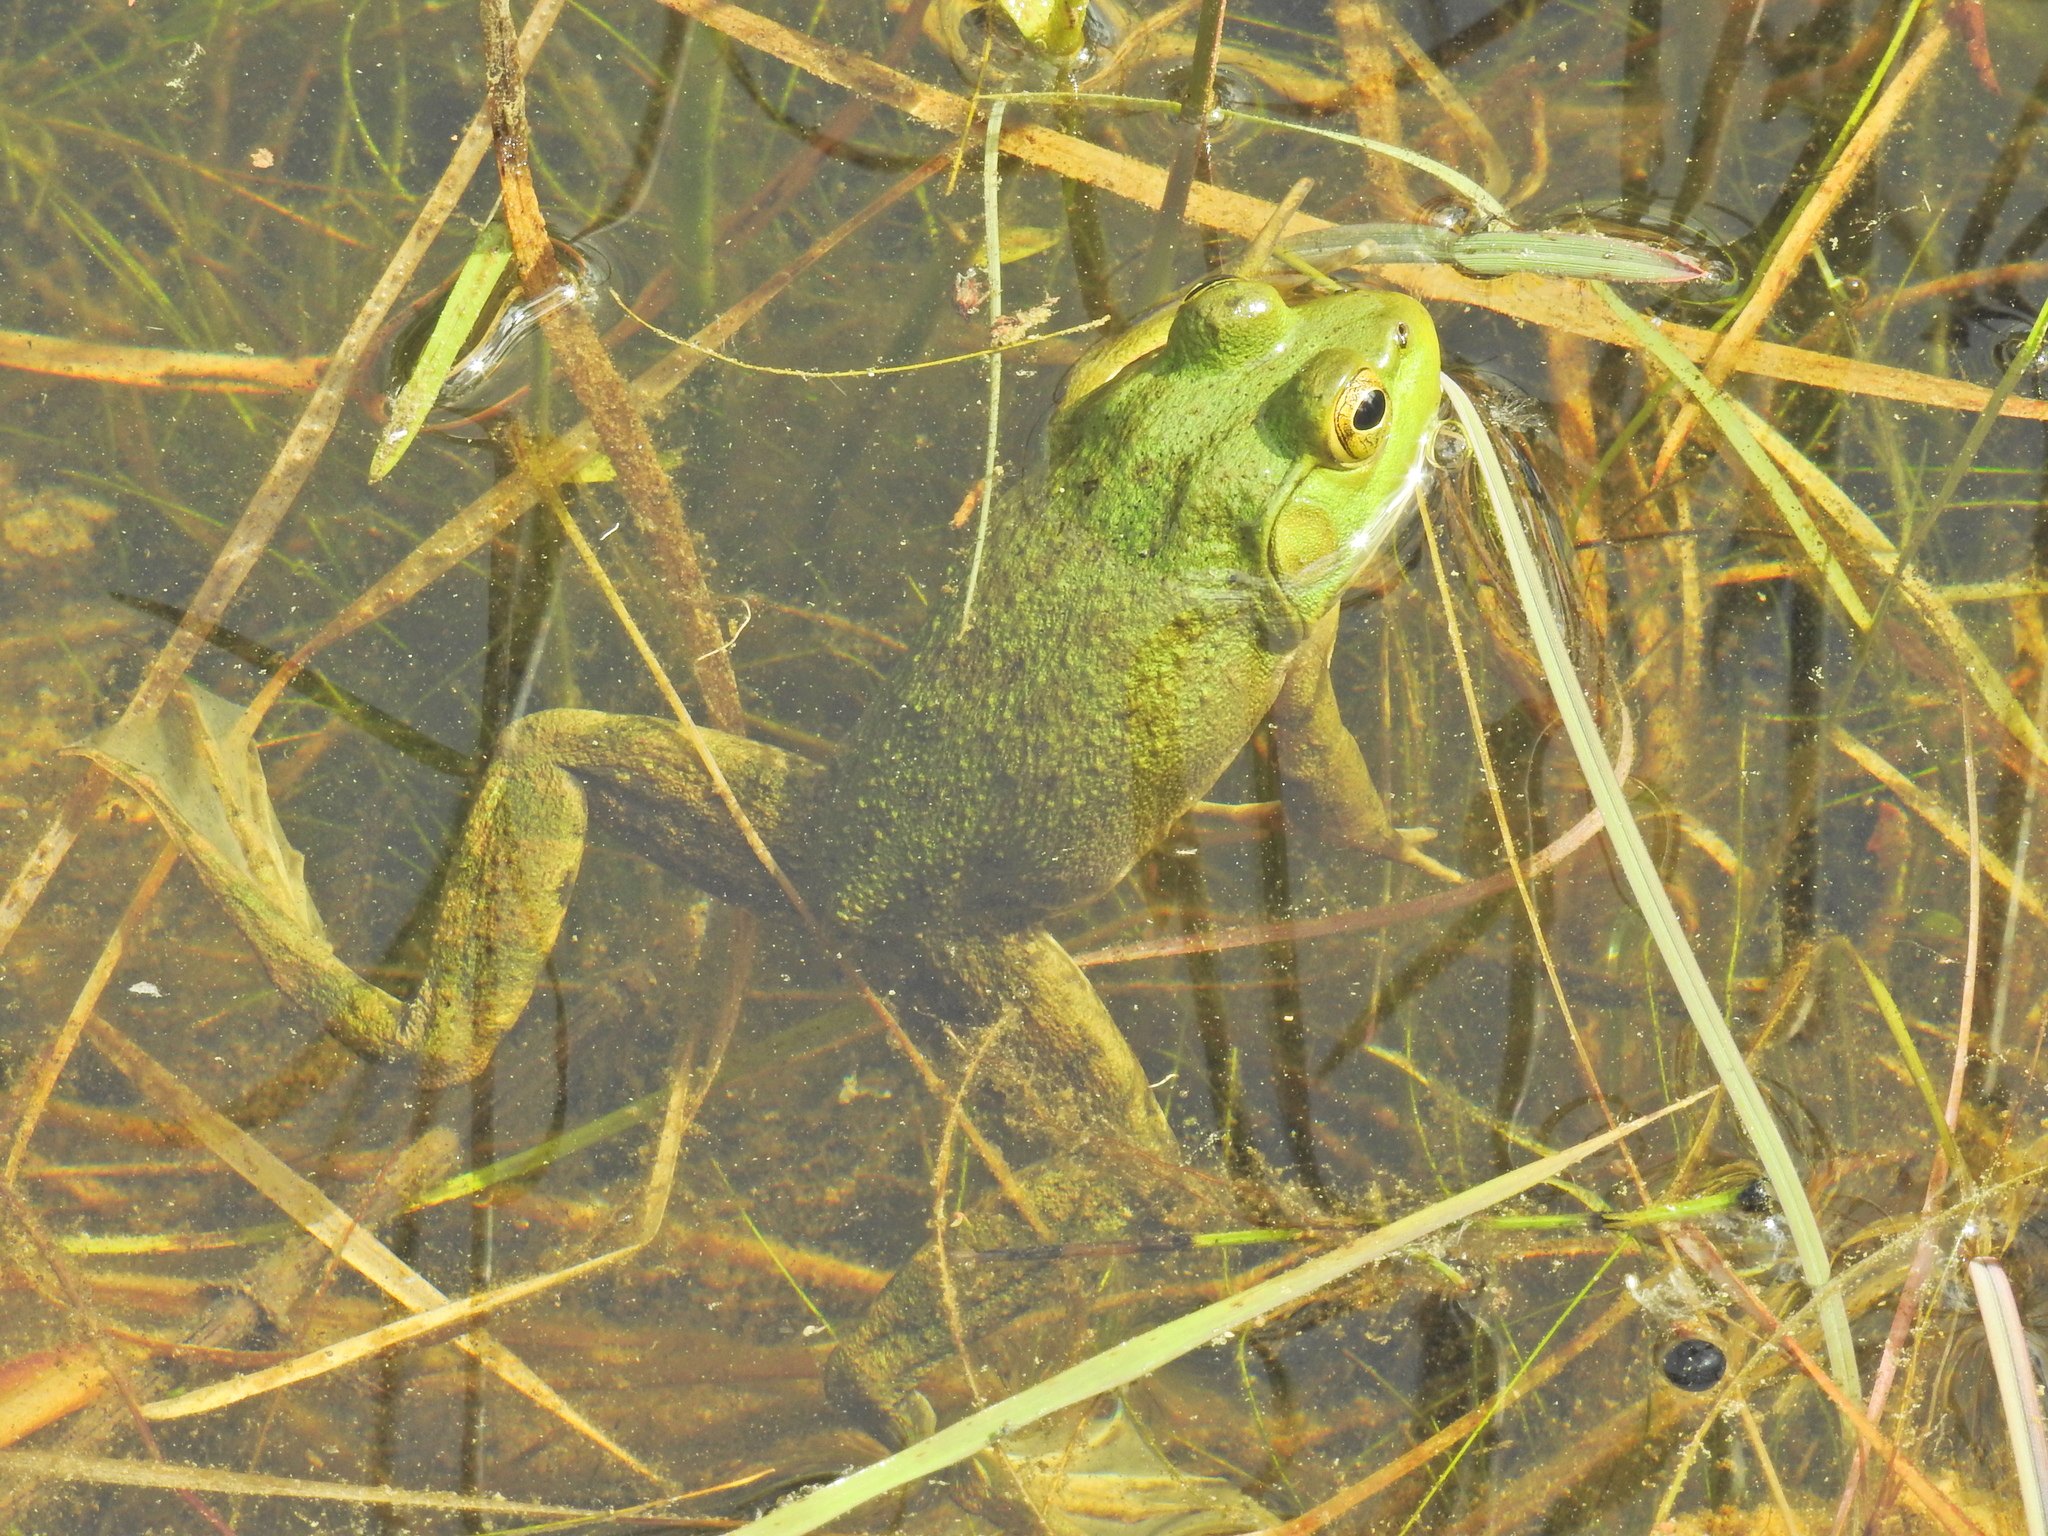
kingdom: Animalia
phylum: Chordata
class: Amphibia
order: Anura
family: Ranidae
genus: Lithobates
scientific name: Lithobates catesbeianus
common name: American bullfrog
